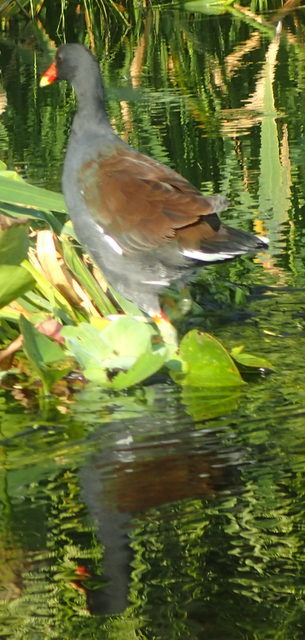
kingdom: Animalia
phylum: Chordata
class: Aves
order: Gruiformes
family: Rallidae
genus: Gallinula
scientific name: Gallinula chloropus
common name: Common moorhen
